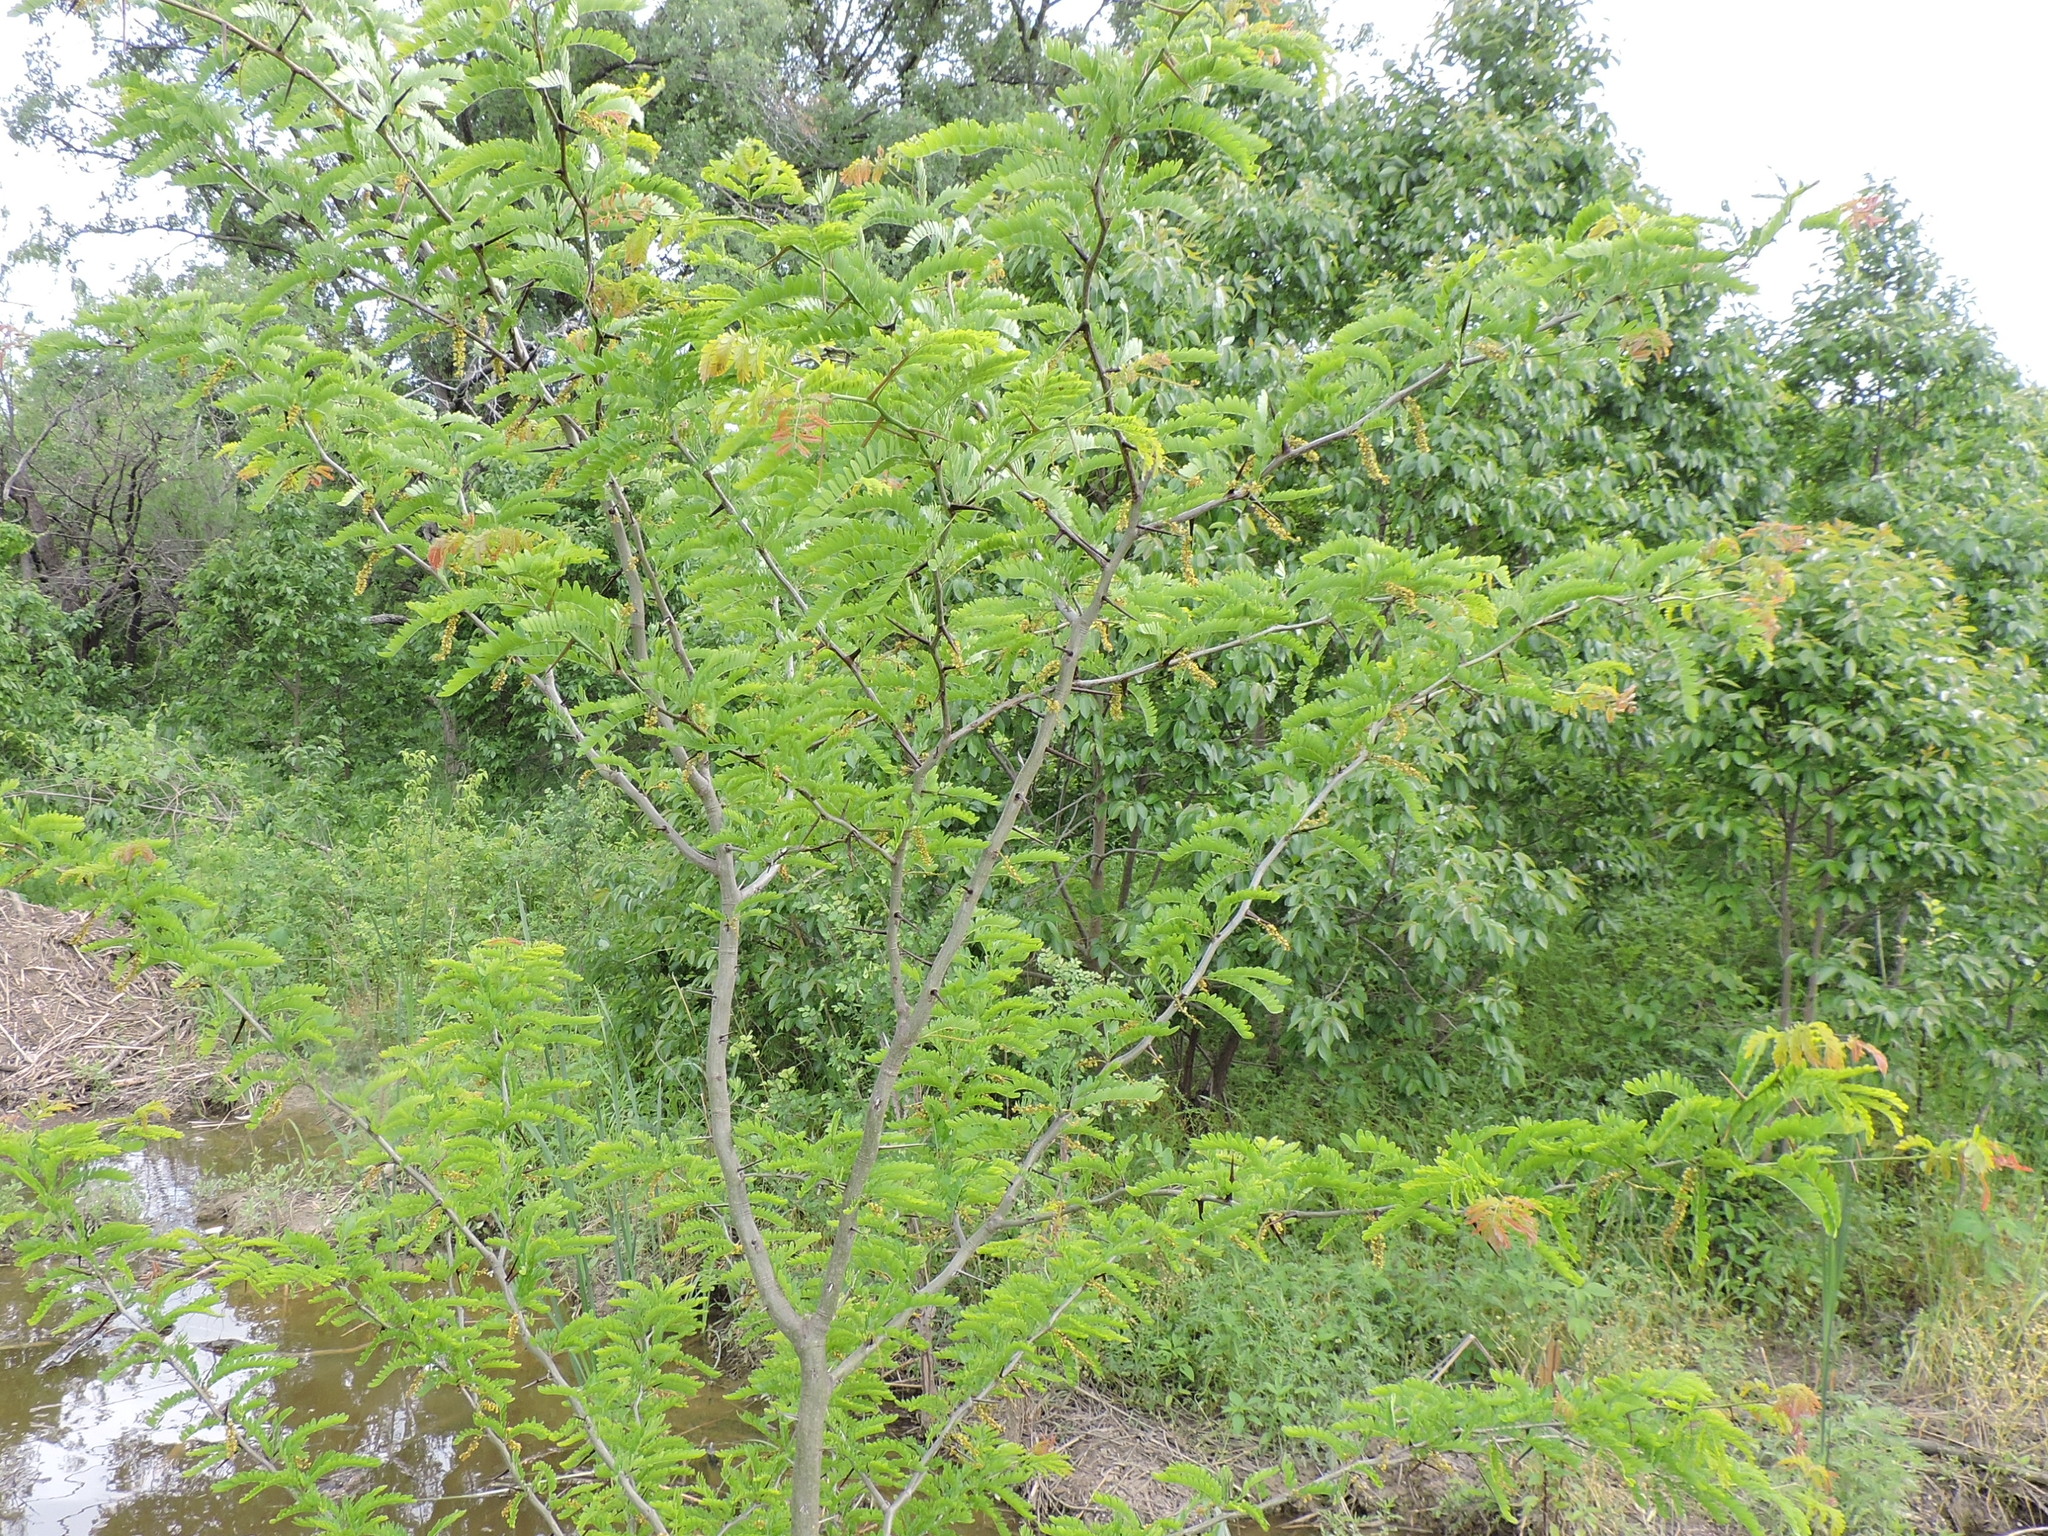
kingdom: Plantae
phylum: Tracheophyta
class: Magnoliopsida
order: Fabales
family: Fabaceae
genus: Gleditsia
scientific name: Gleditsia triacanthos
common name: Common honeylocust
